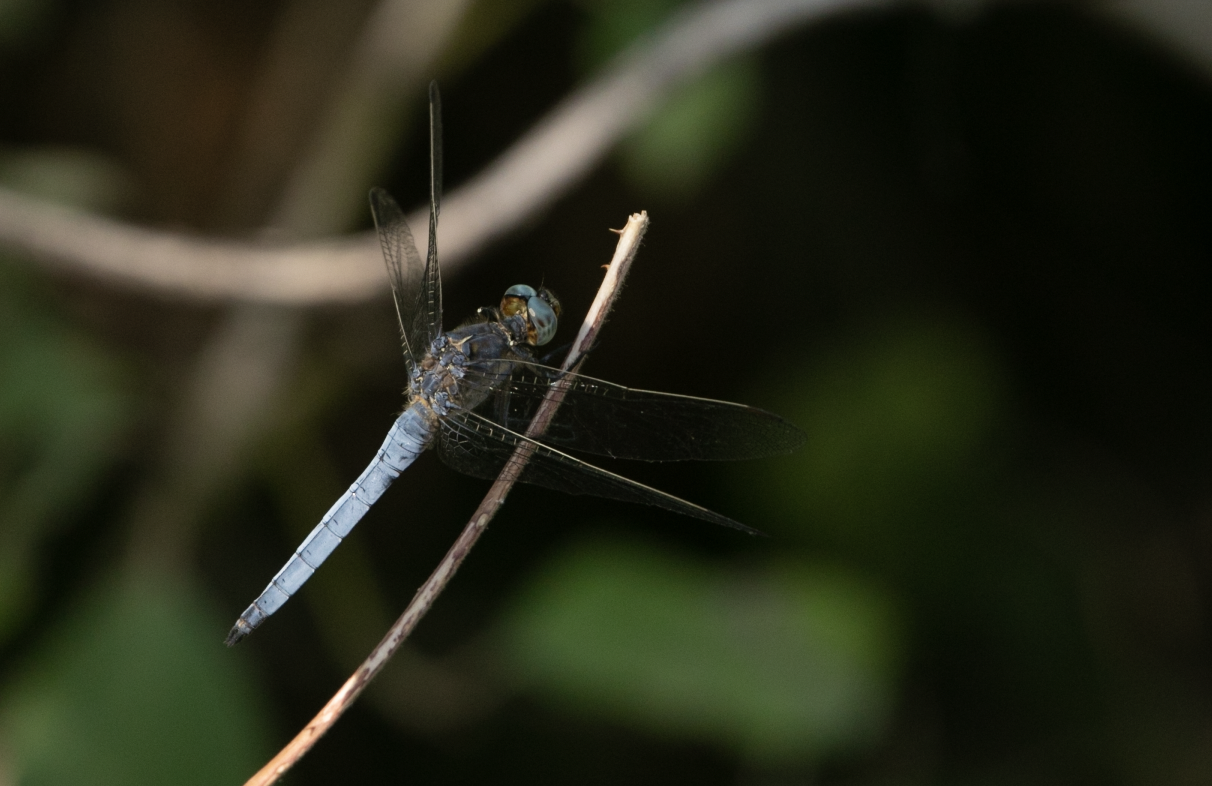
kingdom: Animalia
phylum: Arthropoda
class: Insecta
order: Odonata
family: Libellulidae
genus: Orthetrum
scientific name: Orthetrum coerulescens
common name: Keeled skimmer
